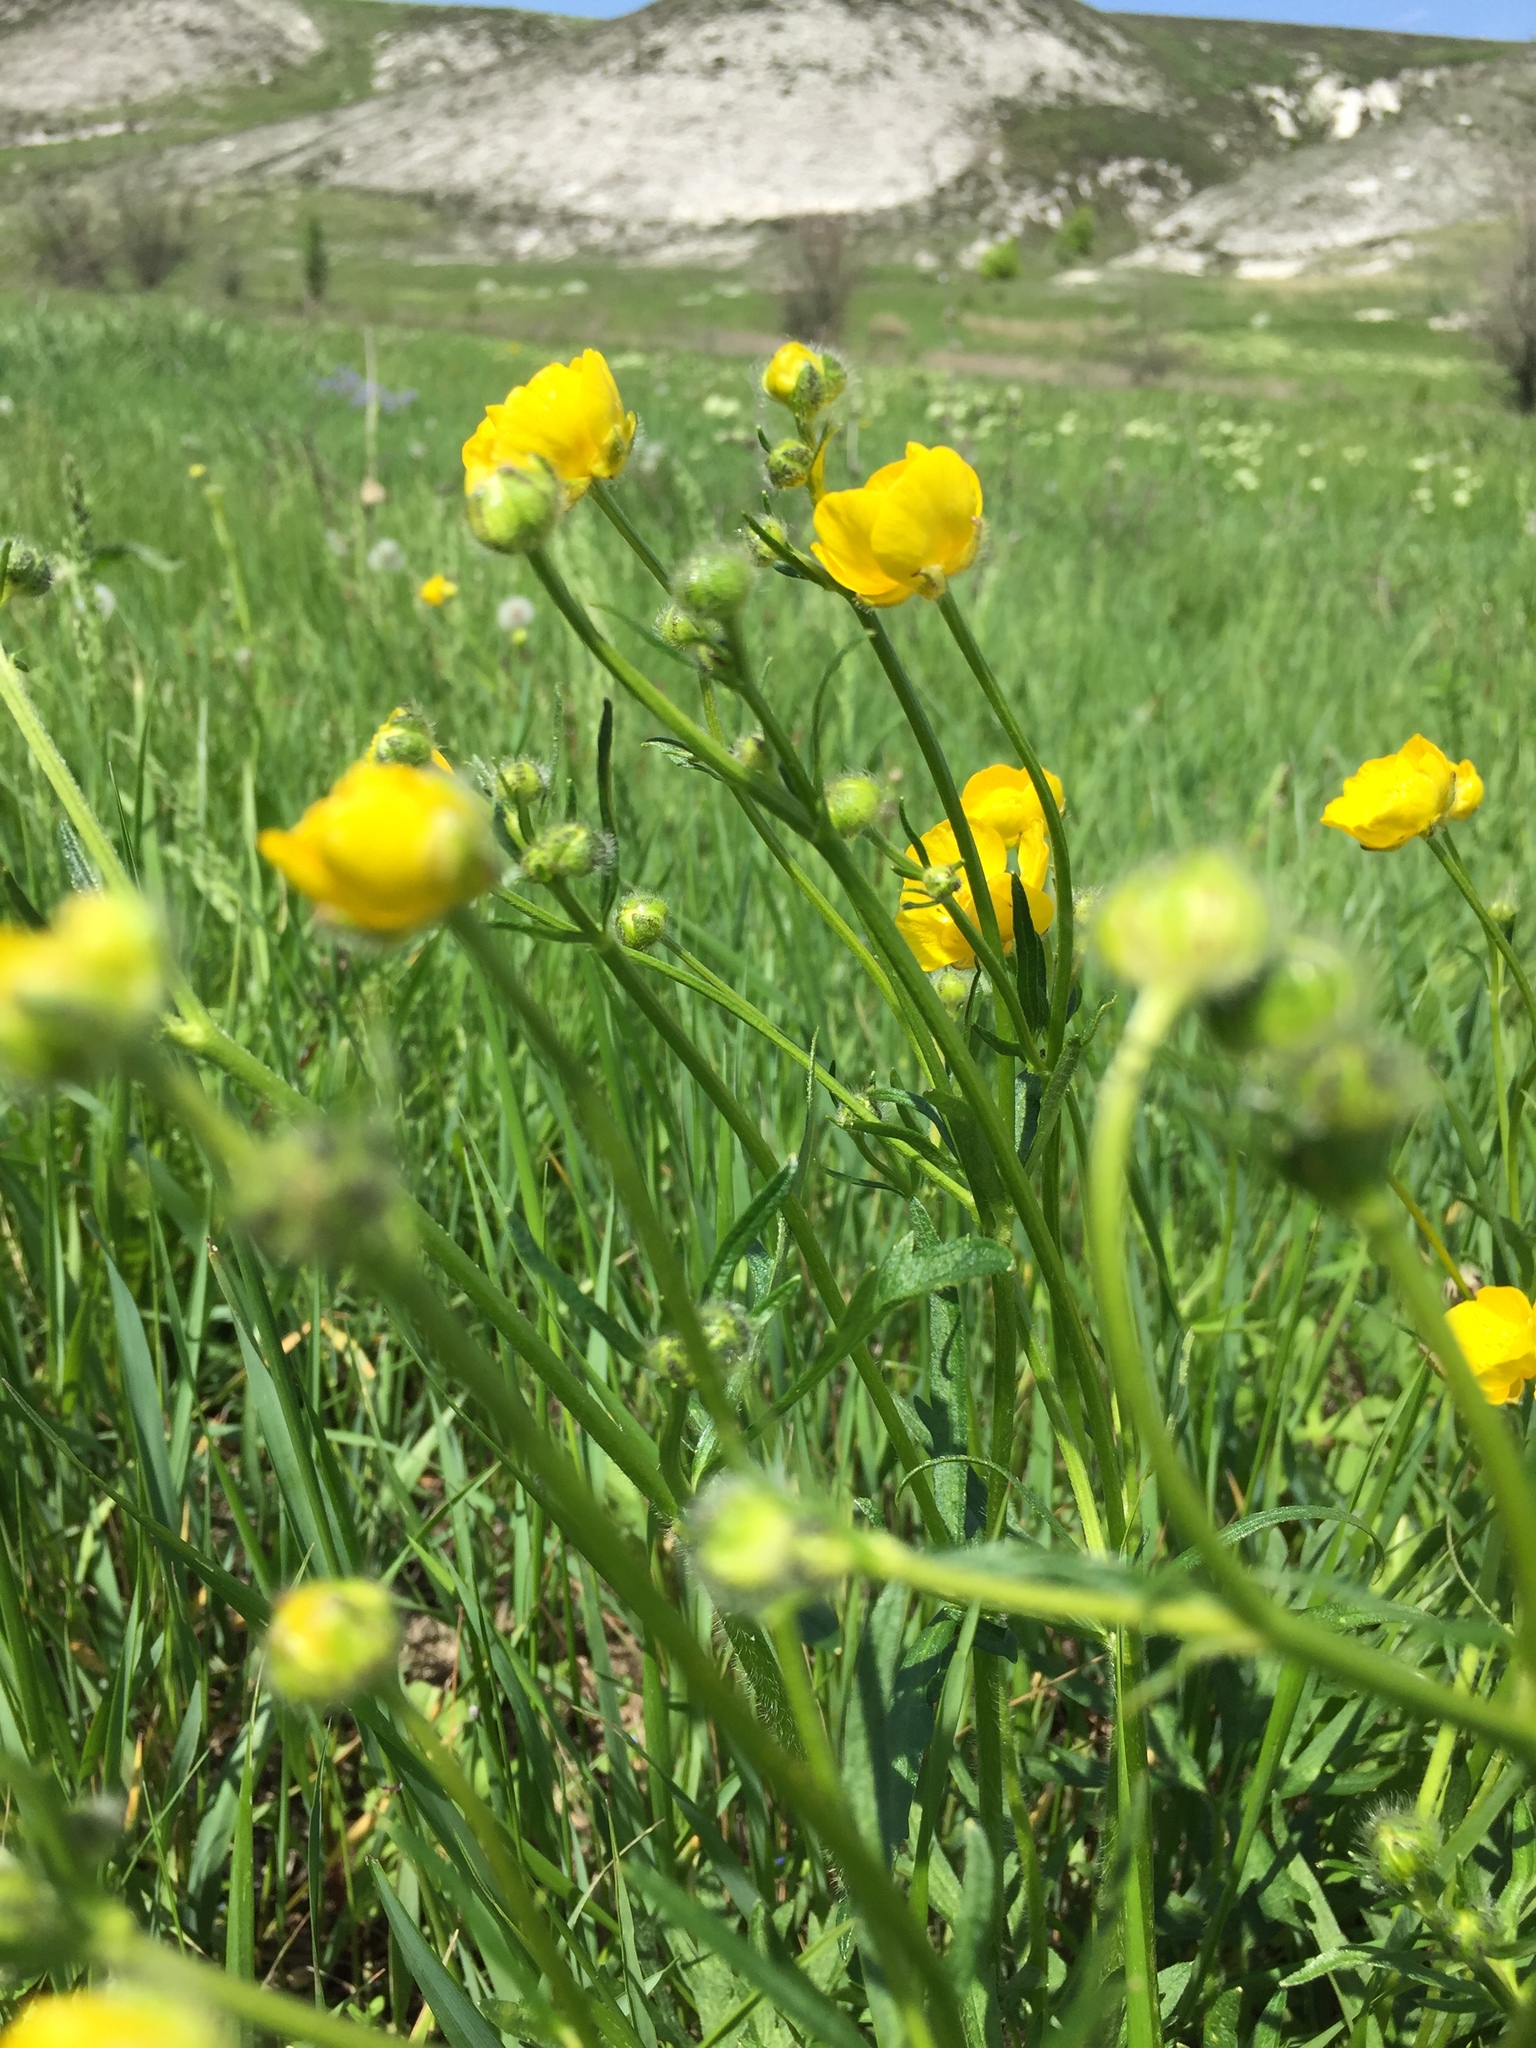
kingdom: Plantae
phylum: Tracheophyta
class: Magnoliopsida
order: Ranunculales
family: Ranunculaceae
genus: Ranunculus
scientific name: Ranunculus polyanthemos
